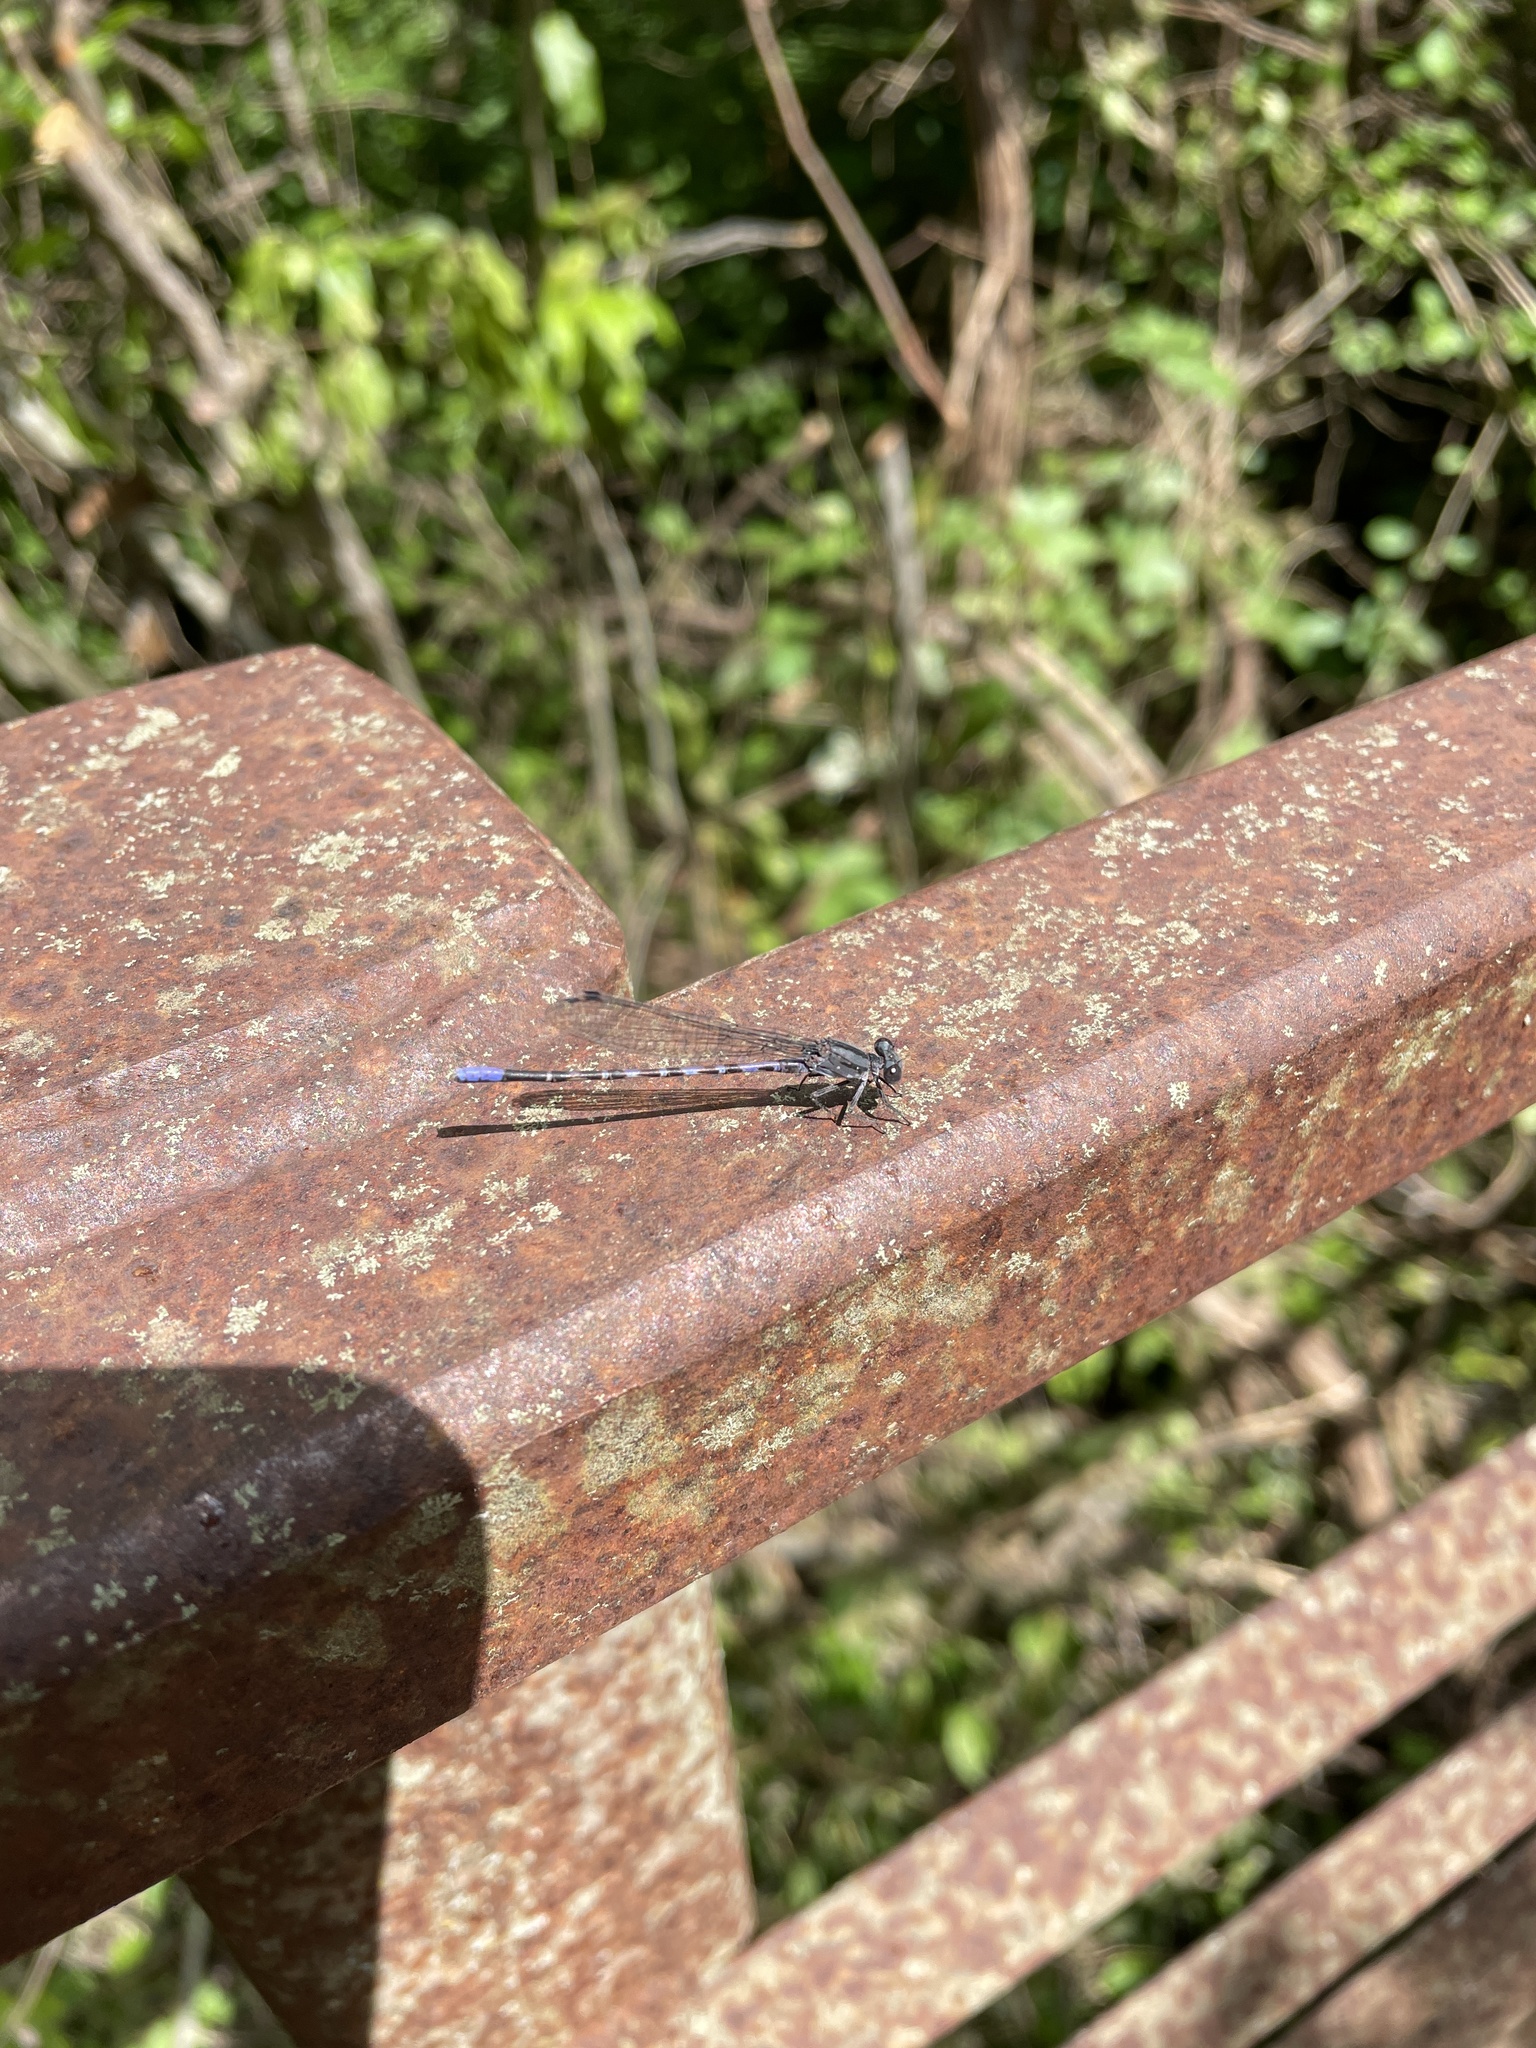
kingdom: Animalia
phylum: Arthropoda
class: Insecta
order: Odonata
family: Coenagrionidae
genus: Argia
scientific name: Argia immunda
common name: Kiowa dancer
